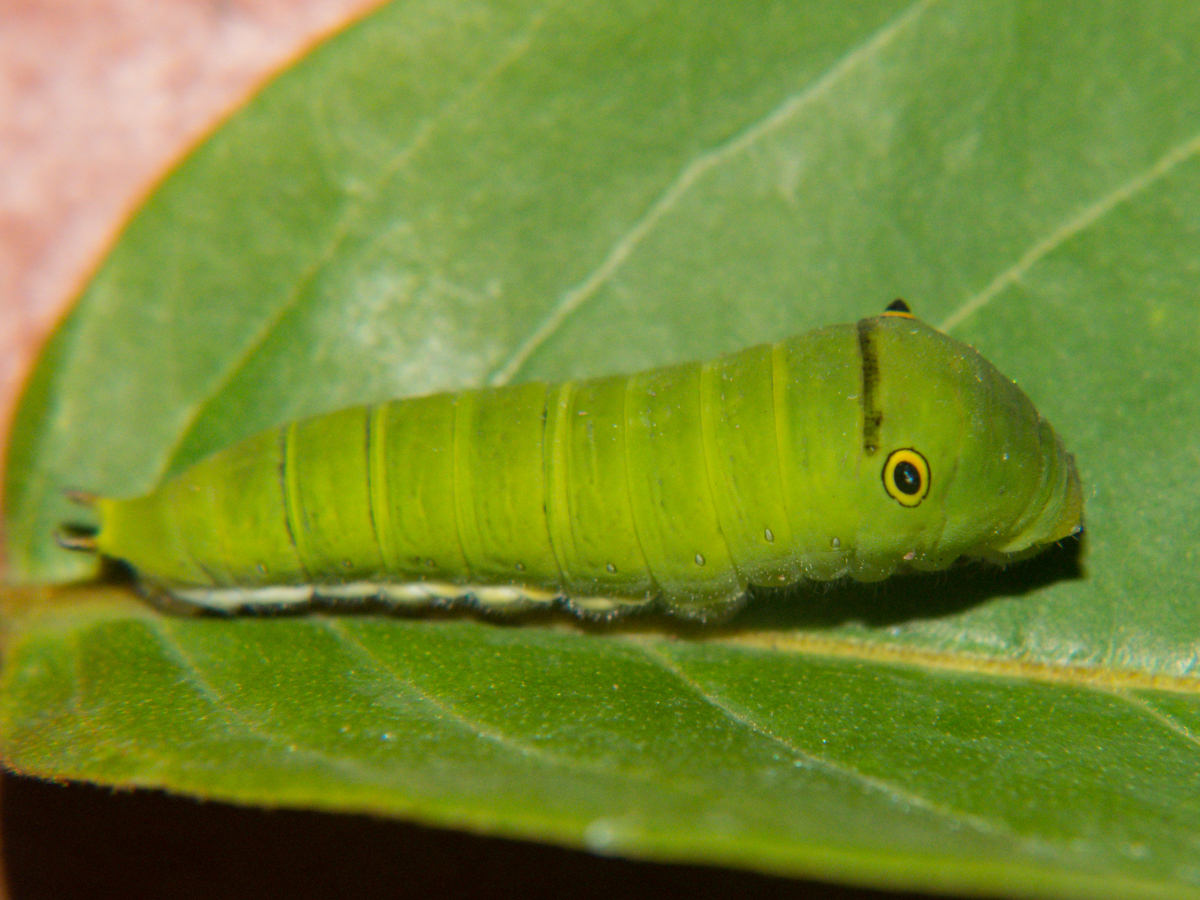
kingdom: Animalia
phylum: Arthropoda
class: Insecta
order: Lepidoptera
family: Papilionidae
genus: Graphium
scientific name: Graphium doson
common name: Common jay
